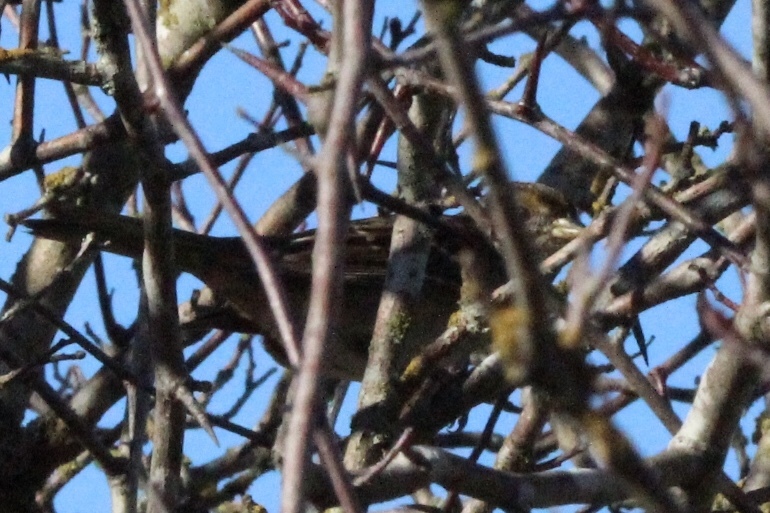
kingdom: Animalia
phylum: Chordata
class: Aves
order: Passeriformes
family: Passerellidae
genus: Zonotrichia
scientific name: Zonotrichia atricapilla
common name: Golden-crowned sparrow
